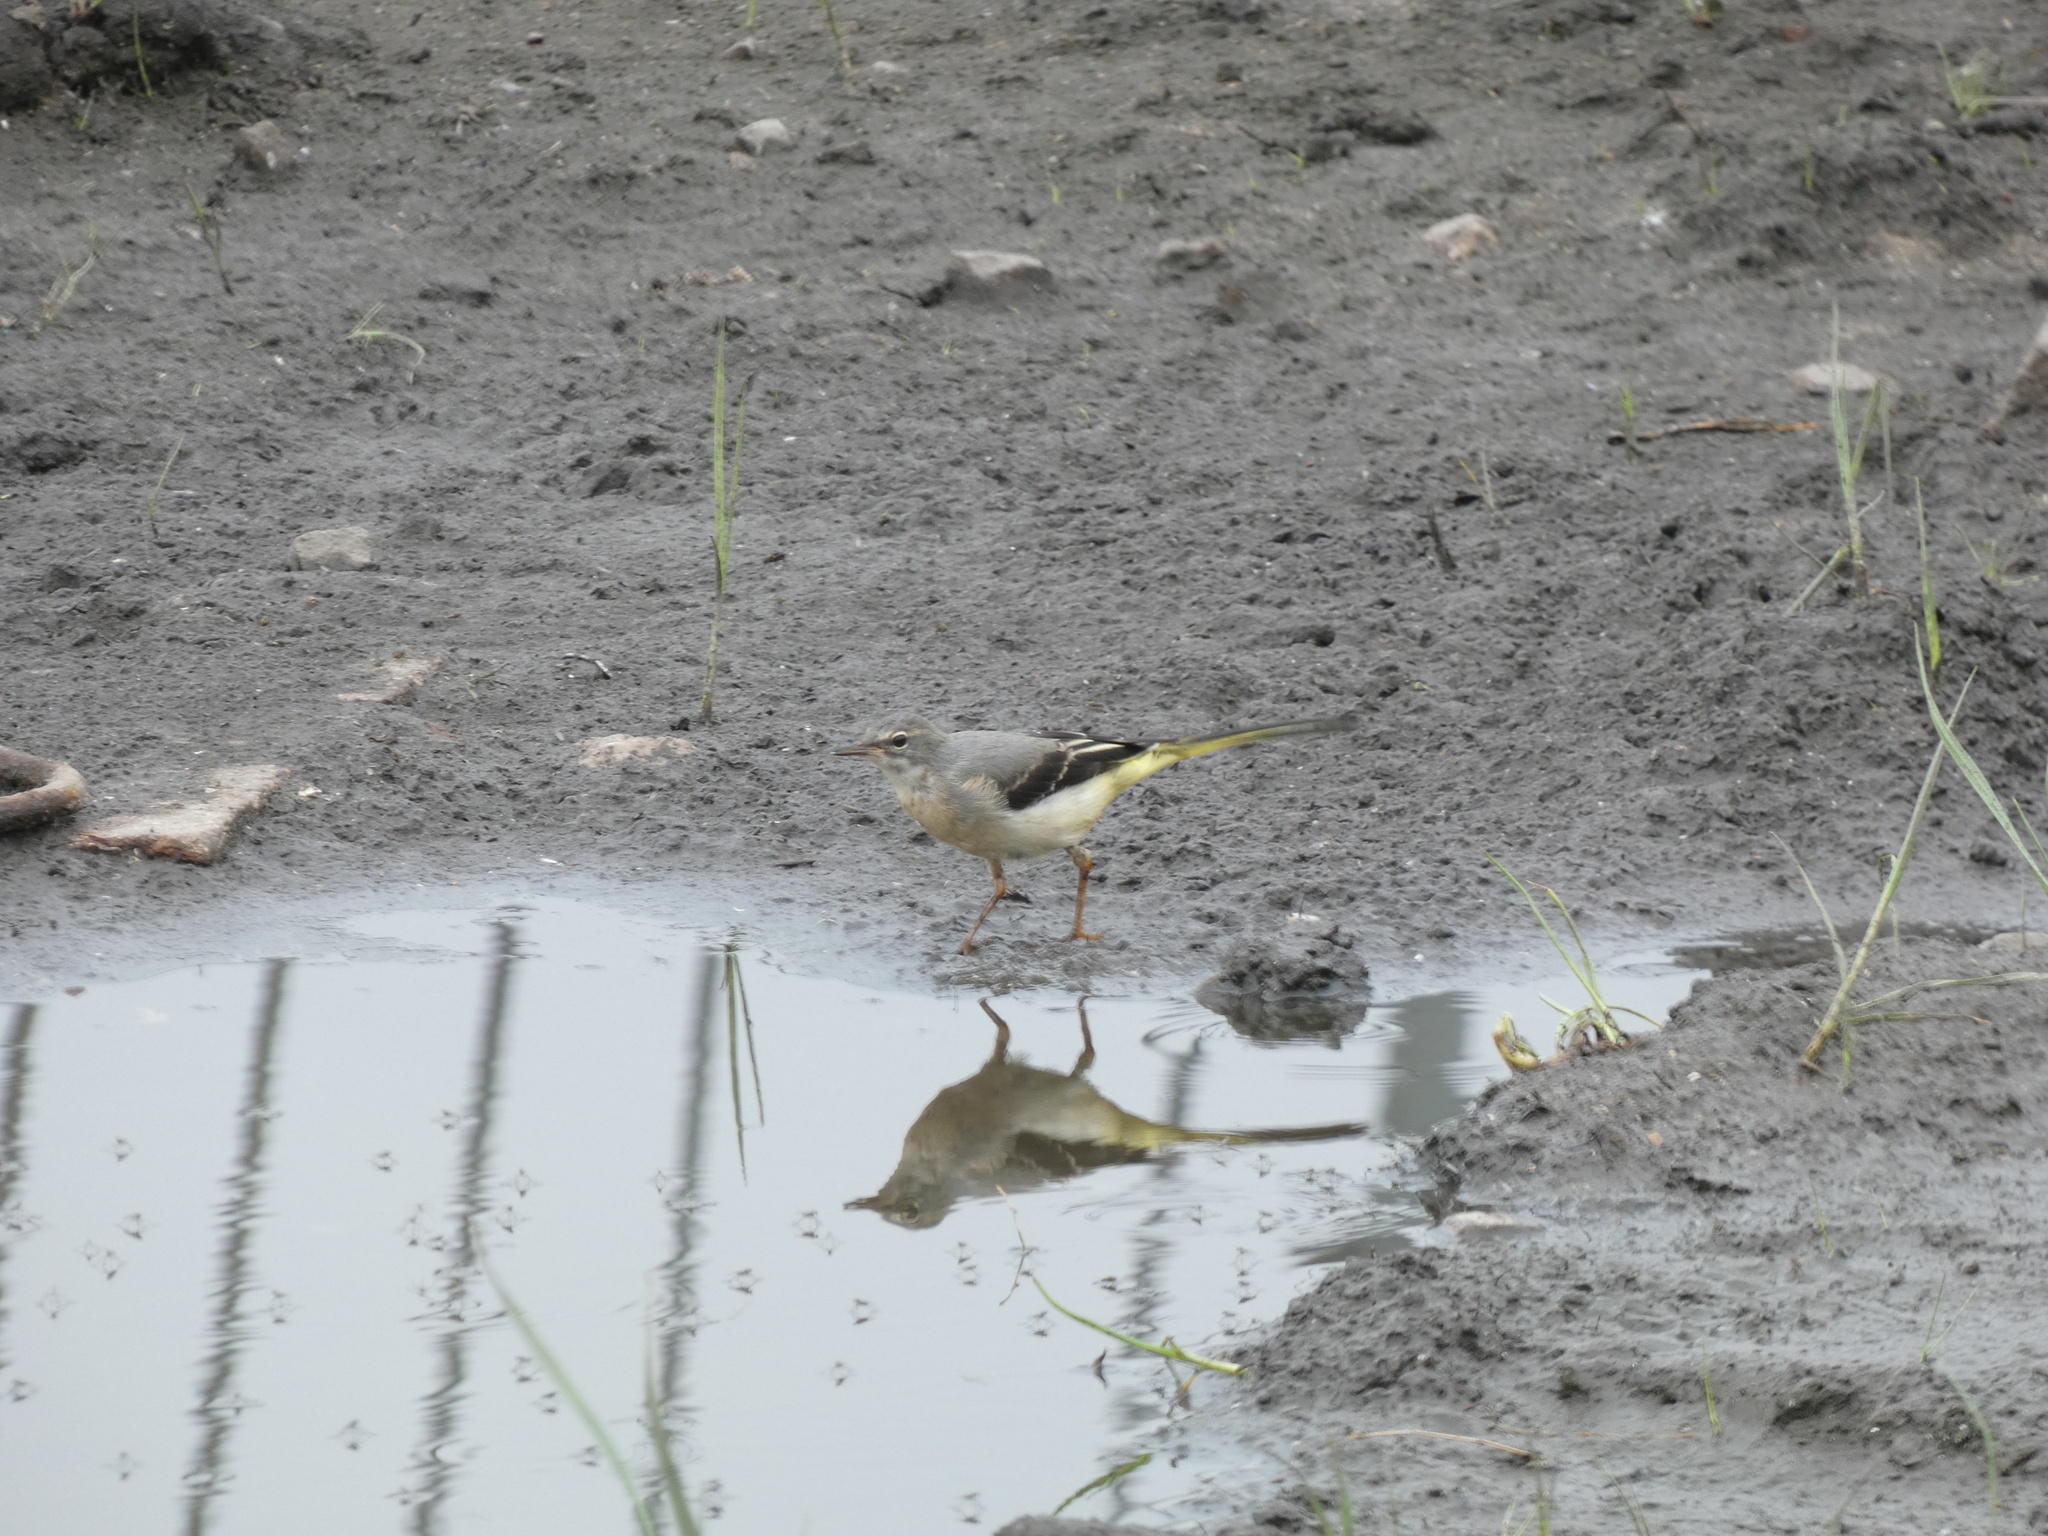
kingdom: Animalia
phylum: Chordata
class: Aves
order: Passeriformes
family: Motacillidae
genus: Motacilla
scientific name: Motacilla cinerea
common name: Grey wagtail
